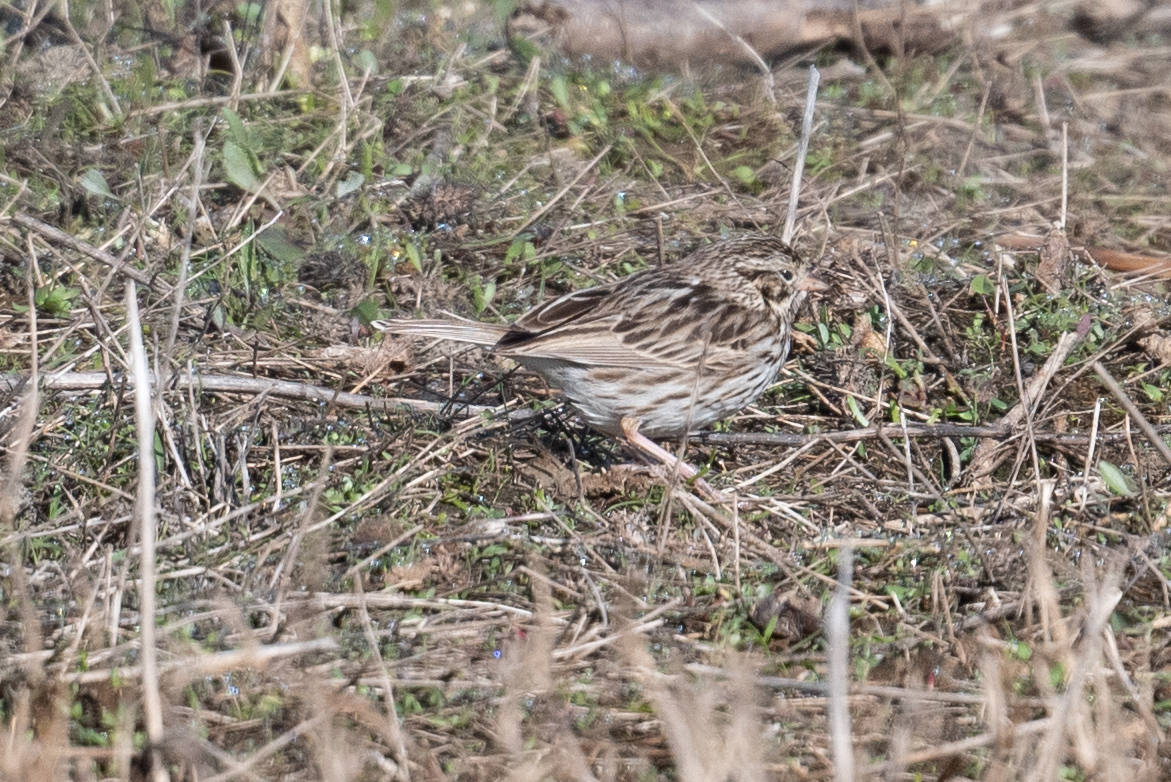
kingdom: Animalia
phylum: Chordata
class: Aves
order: Passeriformes
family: Passerellidae
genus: Passerculus
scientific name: Passerculus sandwichensis
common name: Savannah sparrow
